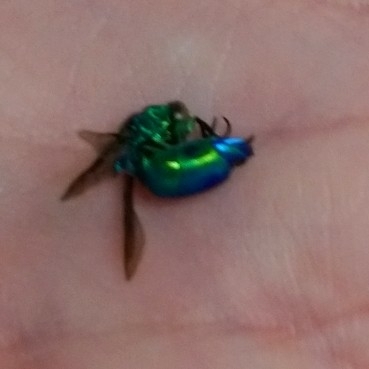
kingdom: Animalia
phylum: Arthropoda
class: Insecta
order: Hymenoptera
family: Chrysididae
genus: Chrysis
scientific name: Chrysis lincea
